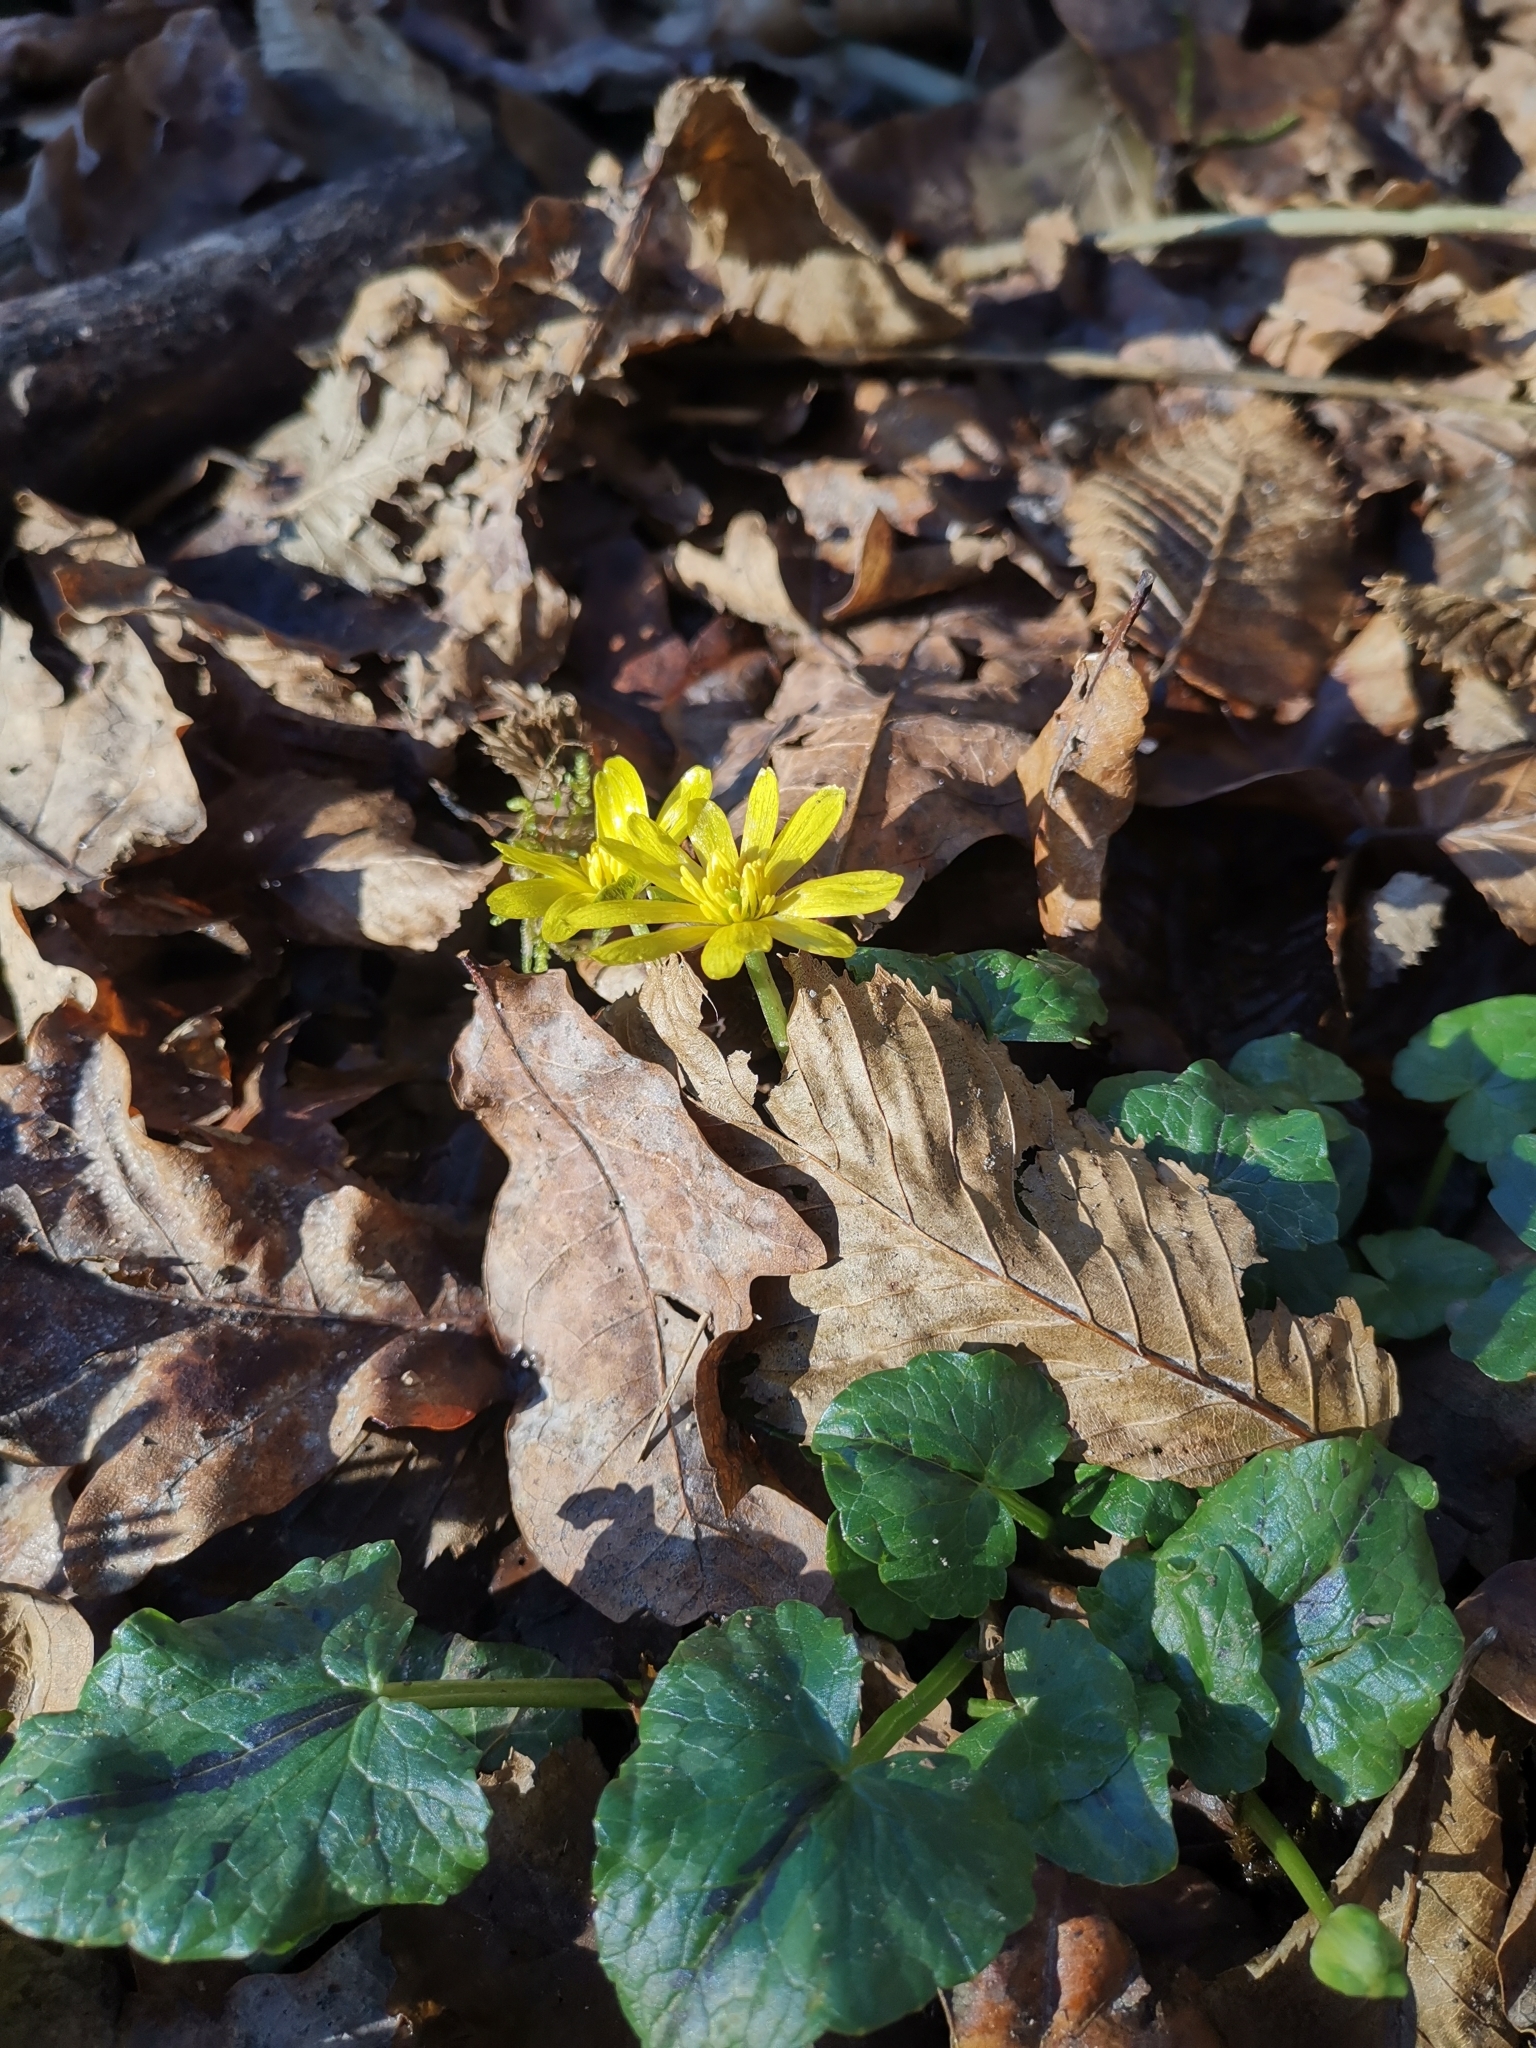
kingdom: Plantae
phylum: Tracheophyta
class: Magnoliopsida
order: Ranunculales
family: Ranunculaceae
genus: Ficaria
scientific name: Ficaria verna
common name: Lesser celandine
